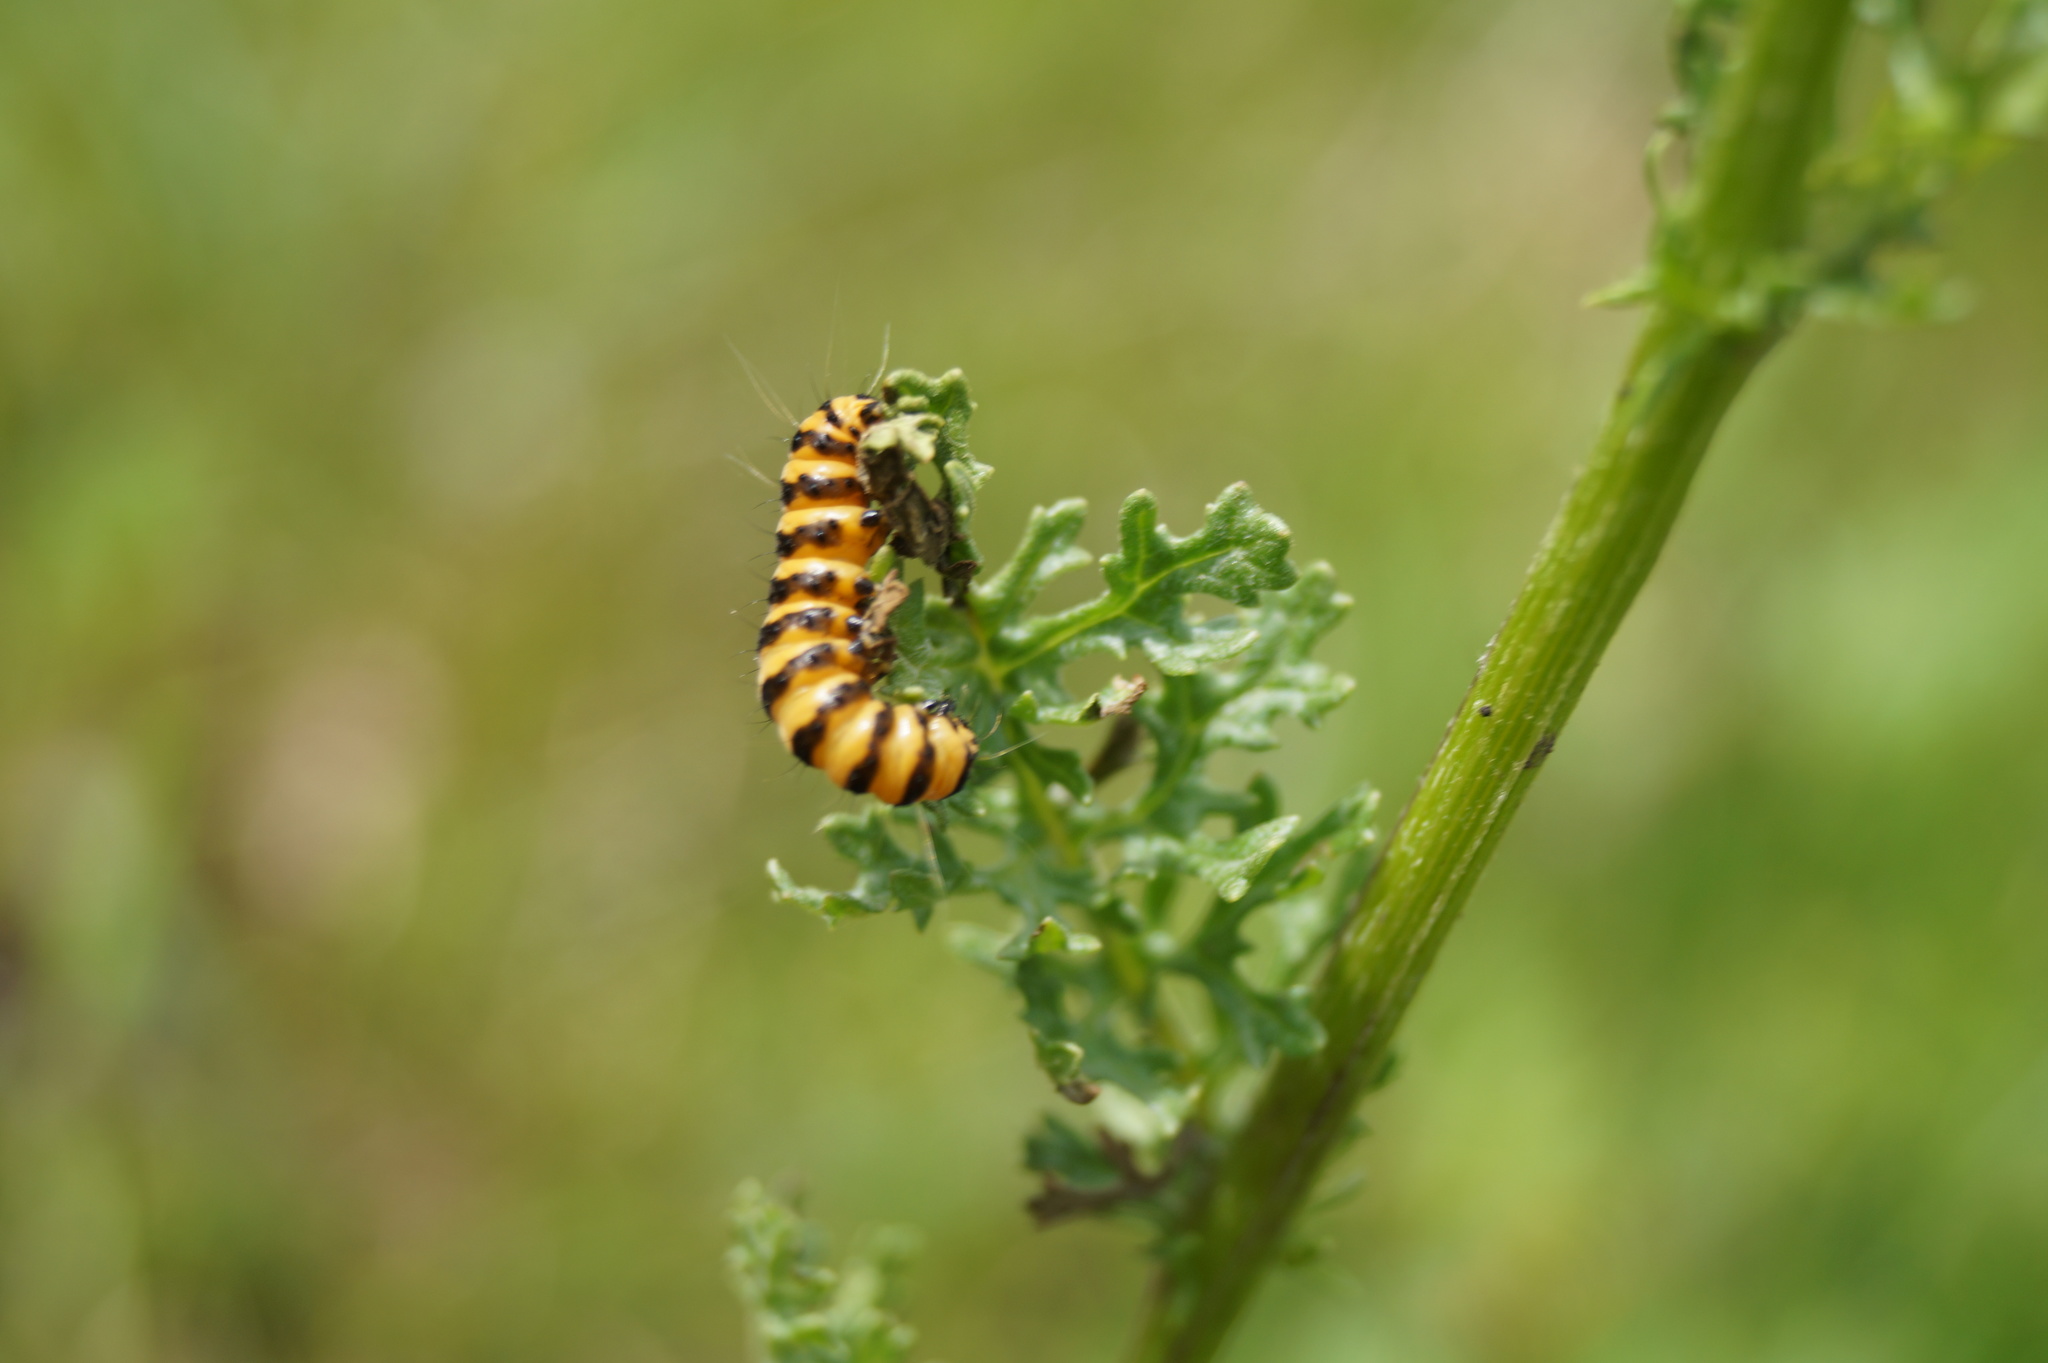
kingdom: Animalia
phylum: Arthropoda
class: Insecta
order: Lepidoptera
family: Erebidae
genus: Tyria
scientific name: Tyria jacobaeae
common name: Cinnabar
